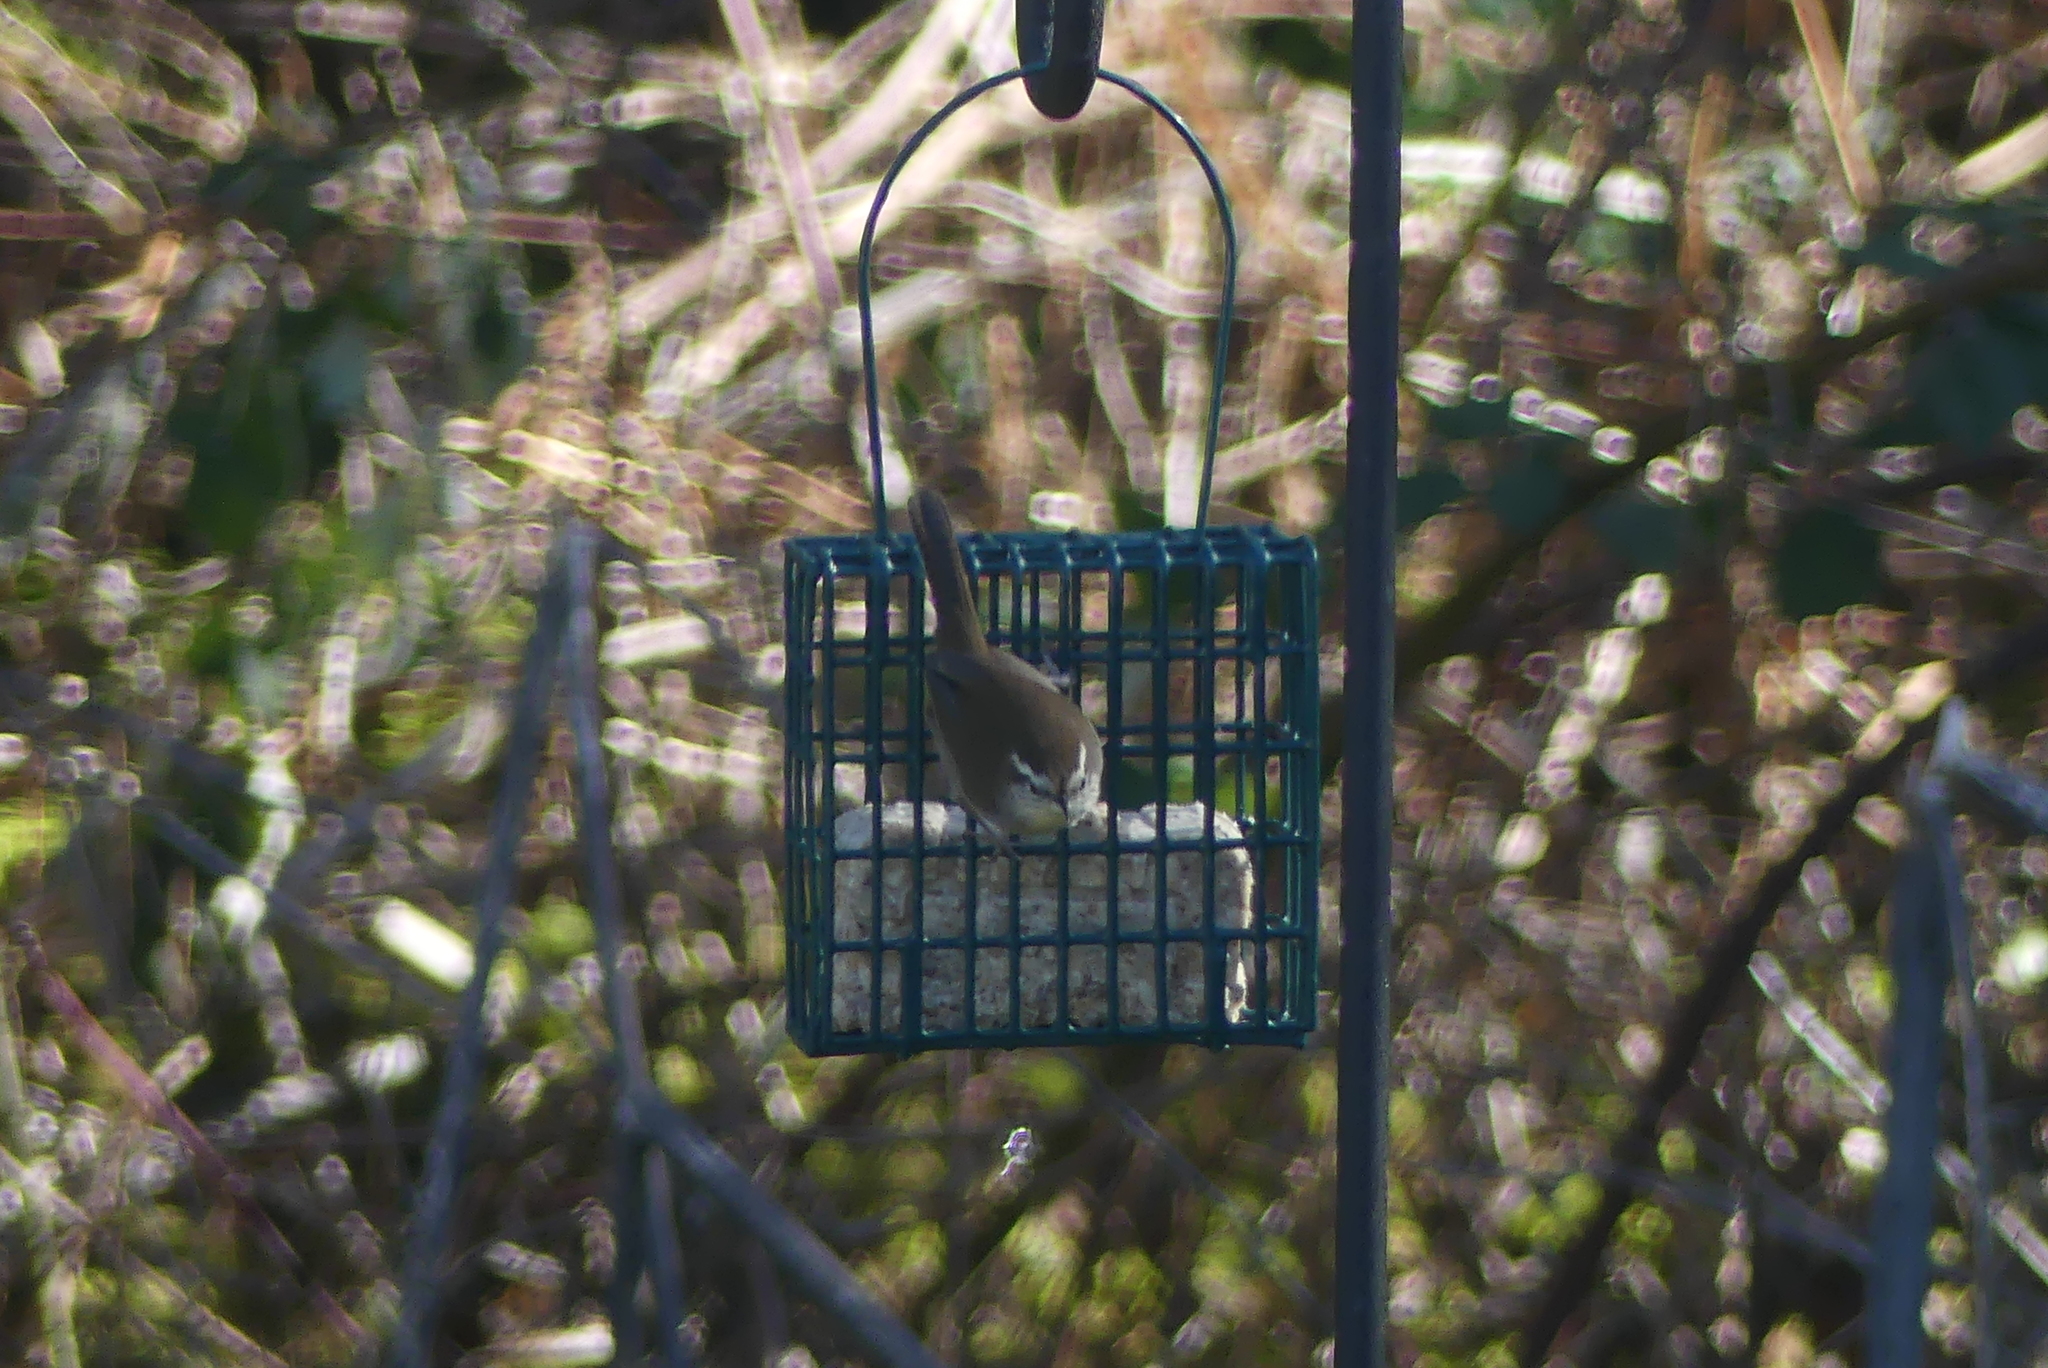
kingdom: Animalia
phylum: Chordata
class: Aves
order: Passeriformes
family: Troglodytidae
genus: Thryomanes
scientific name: Thryomanes bewickii
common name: Bewick's wren
